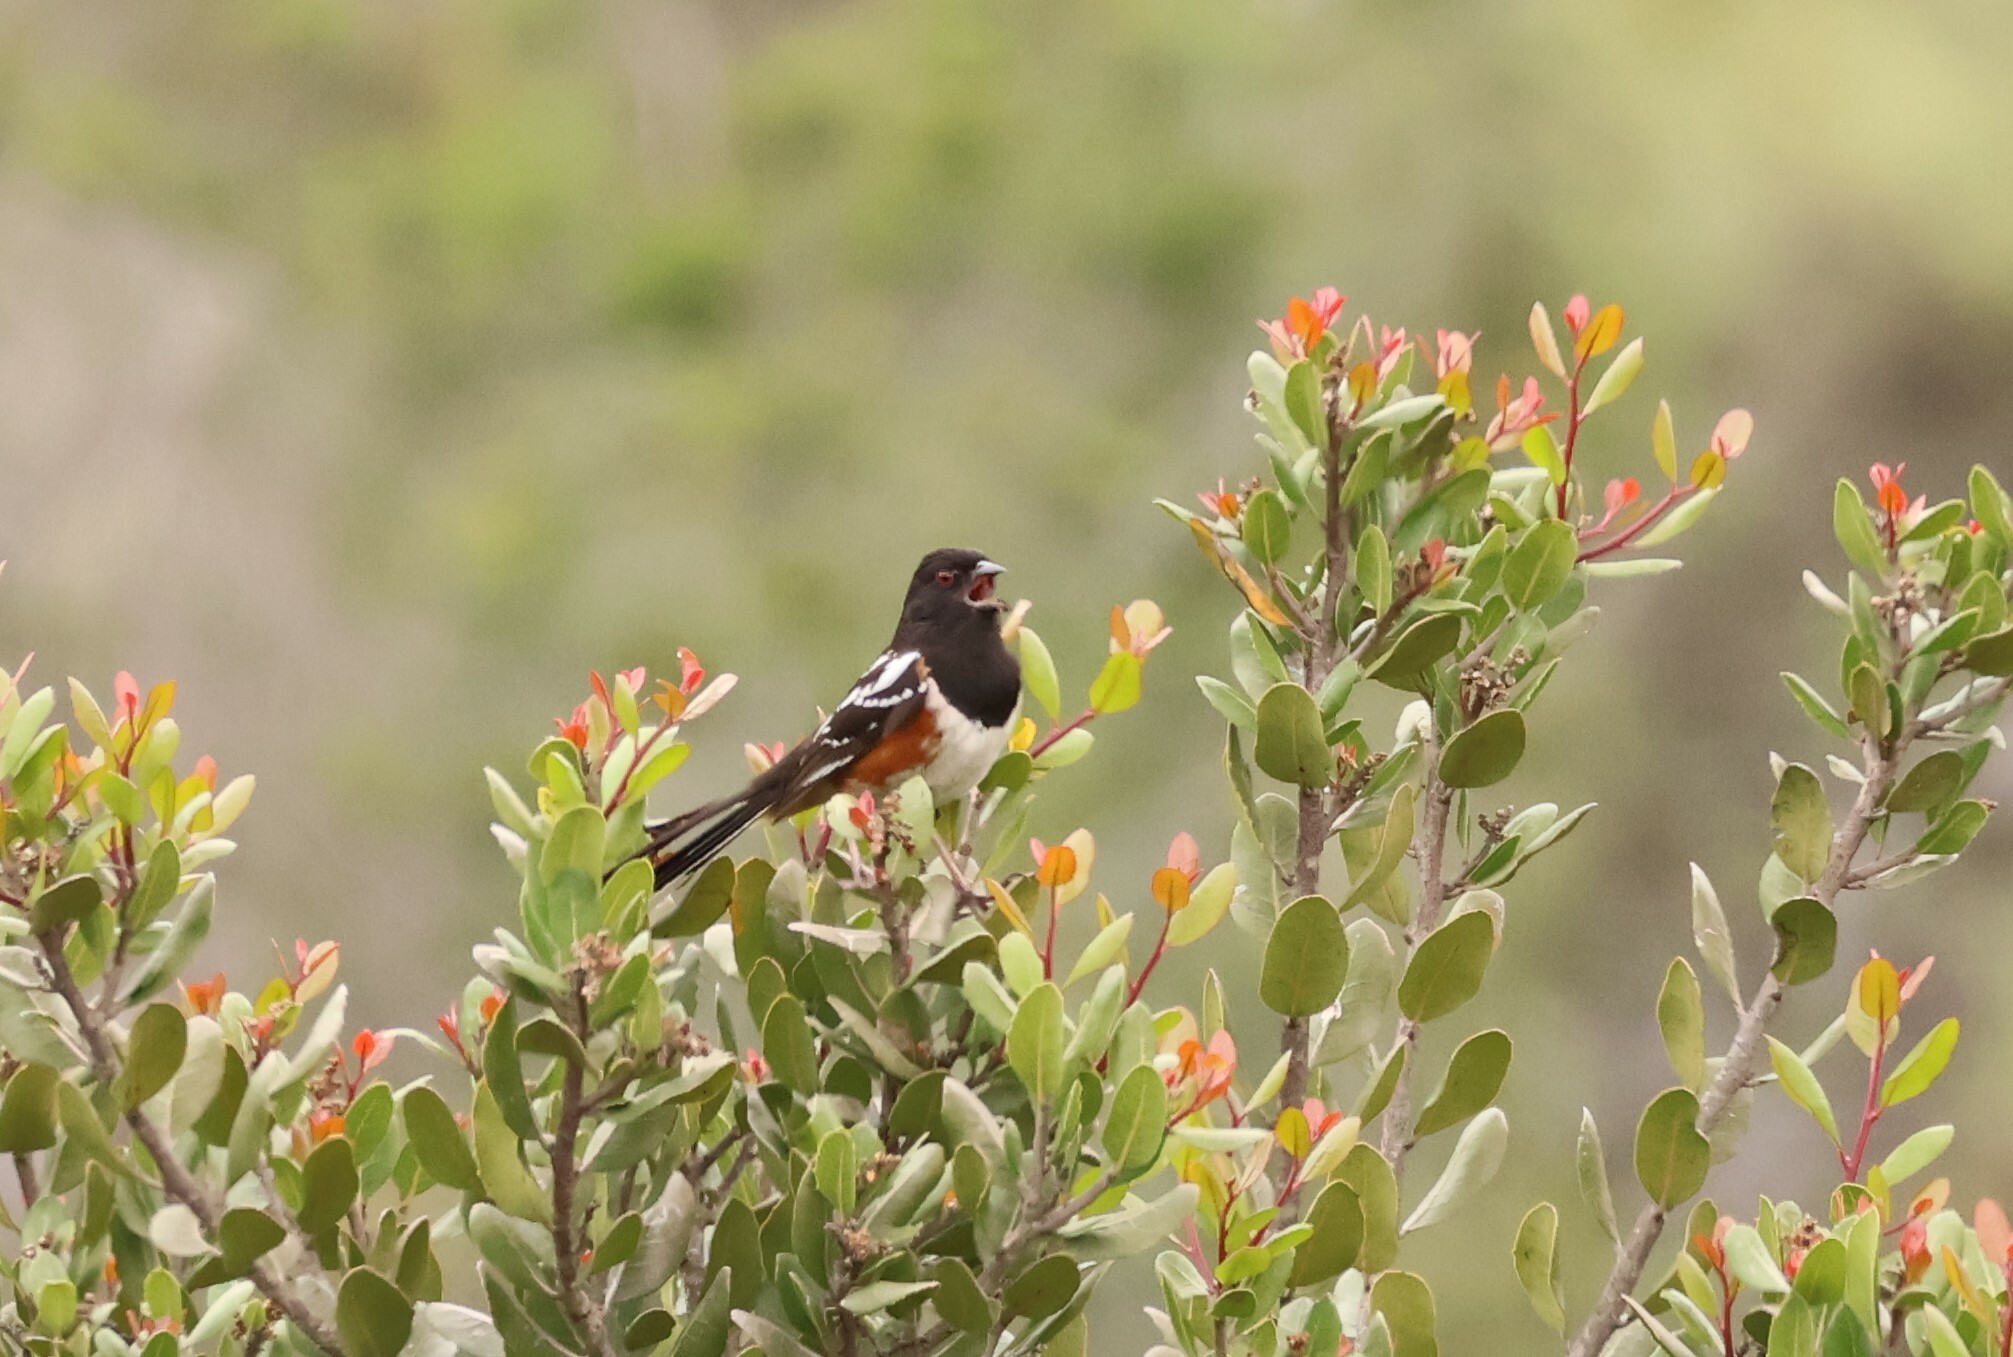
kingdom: Animalia
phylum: Chordata
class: Aves
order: Passeriformes
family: Passerellidae
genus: Pipilo
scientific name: Pipilo maculatus
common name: Spotted towhee
